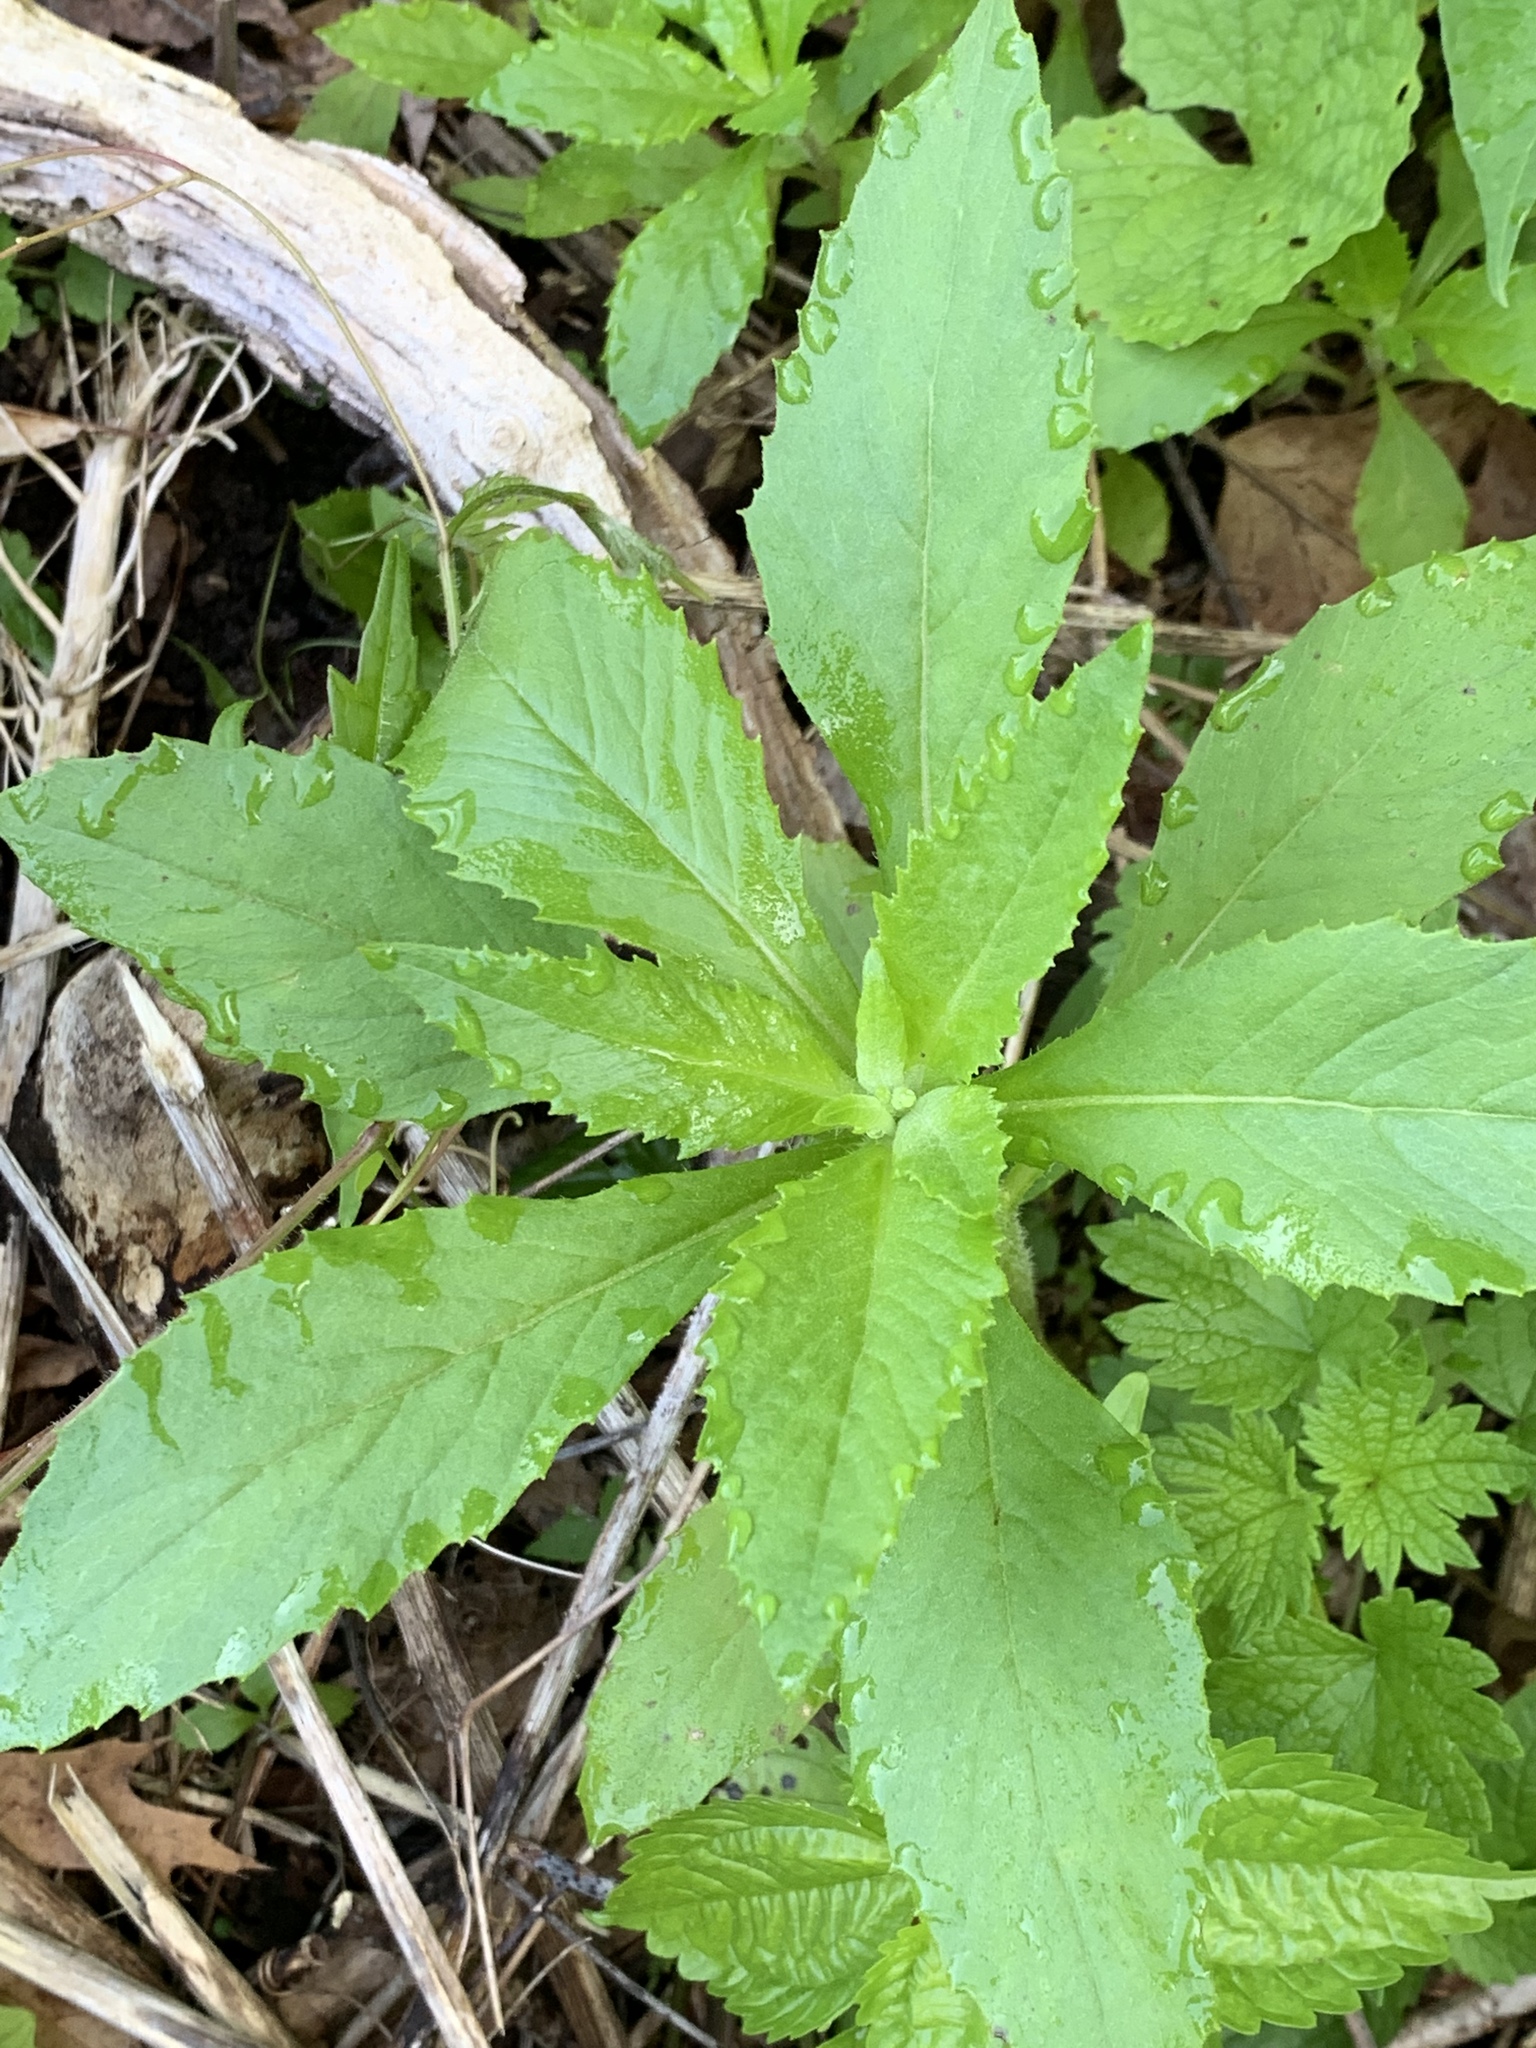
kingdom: Plantae
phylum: Tracheophyta
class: Magnoliopsida
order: Asterales
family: Asteraceae
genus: Erechtites
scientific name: Erechtites hieraciifolius
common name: American burnweed
